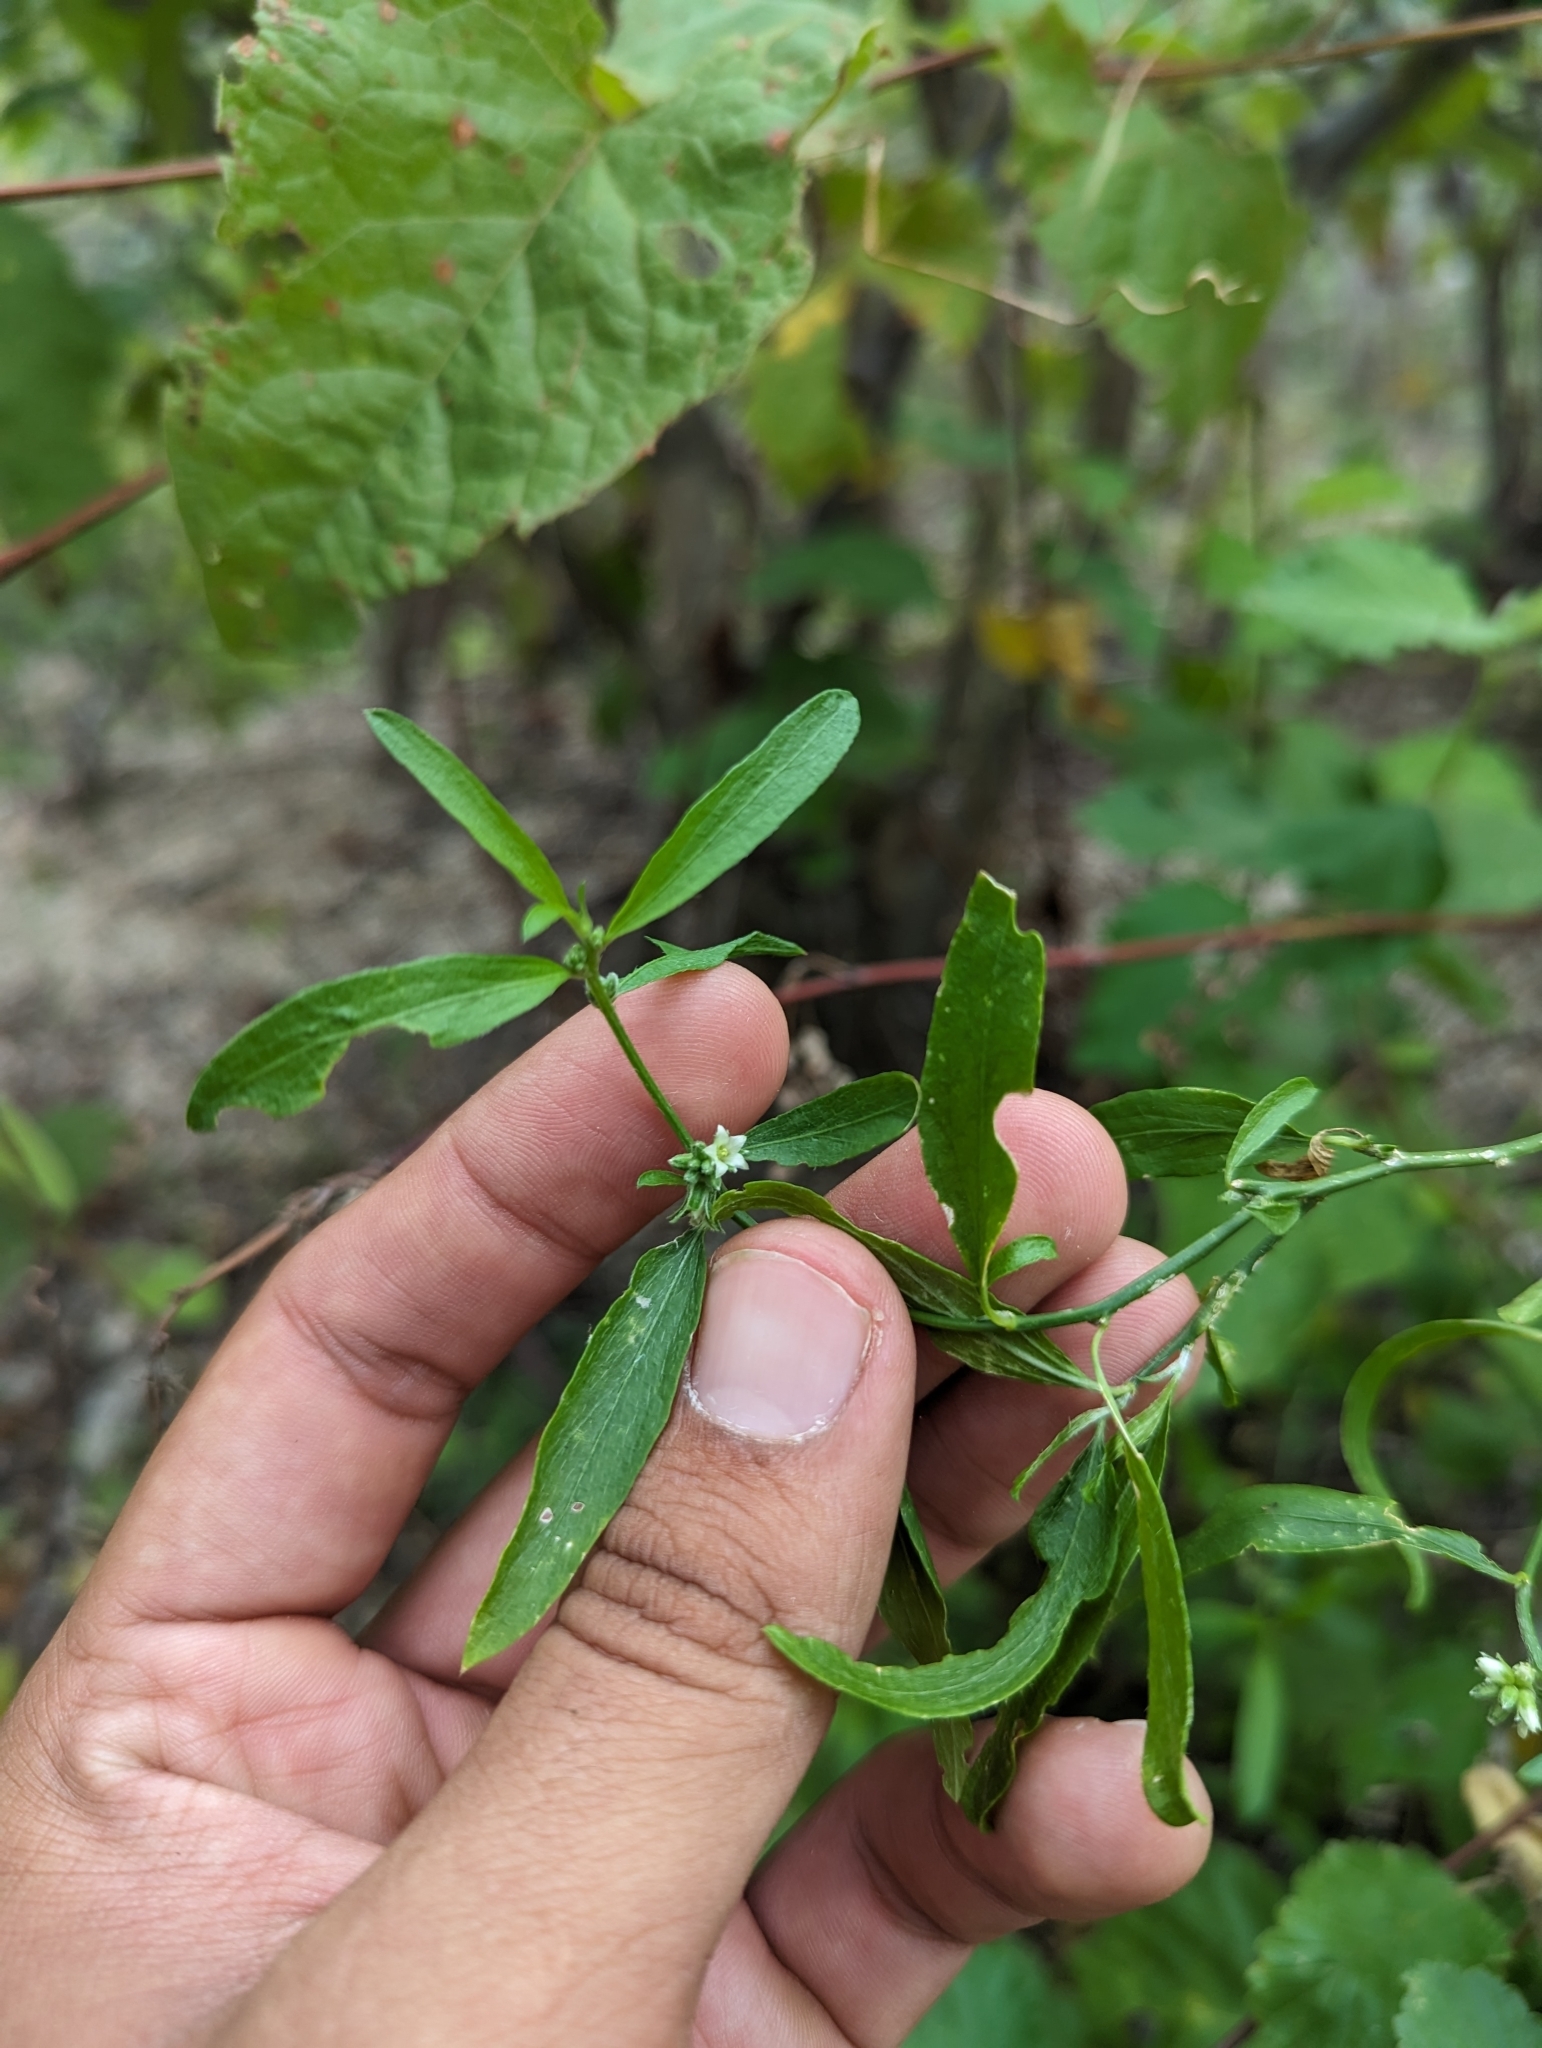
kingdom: Plantae
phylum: Tracheophyta
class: Magnoliopsida
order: Malpighiales
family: Euphorbiaceae
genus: Ditaxis
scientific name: Ditaxis lanceolata
